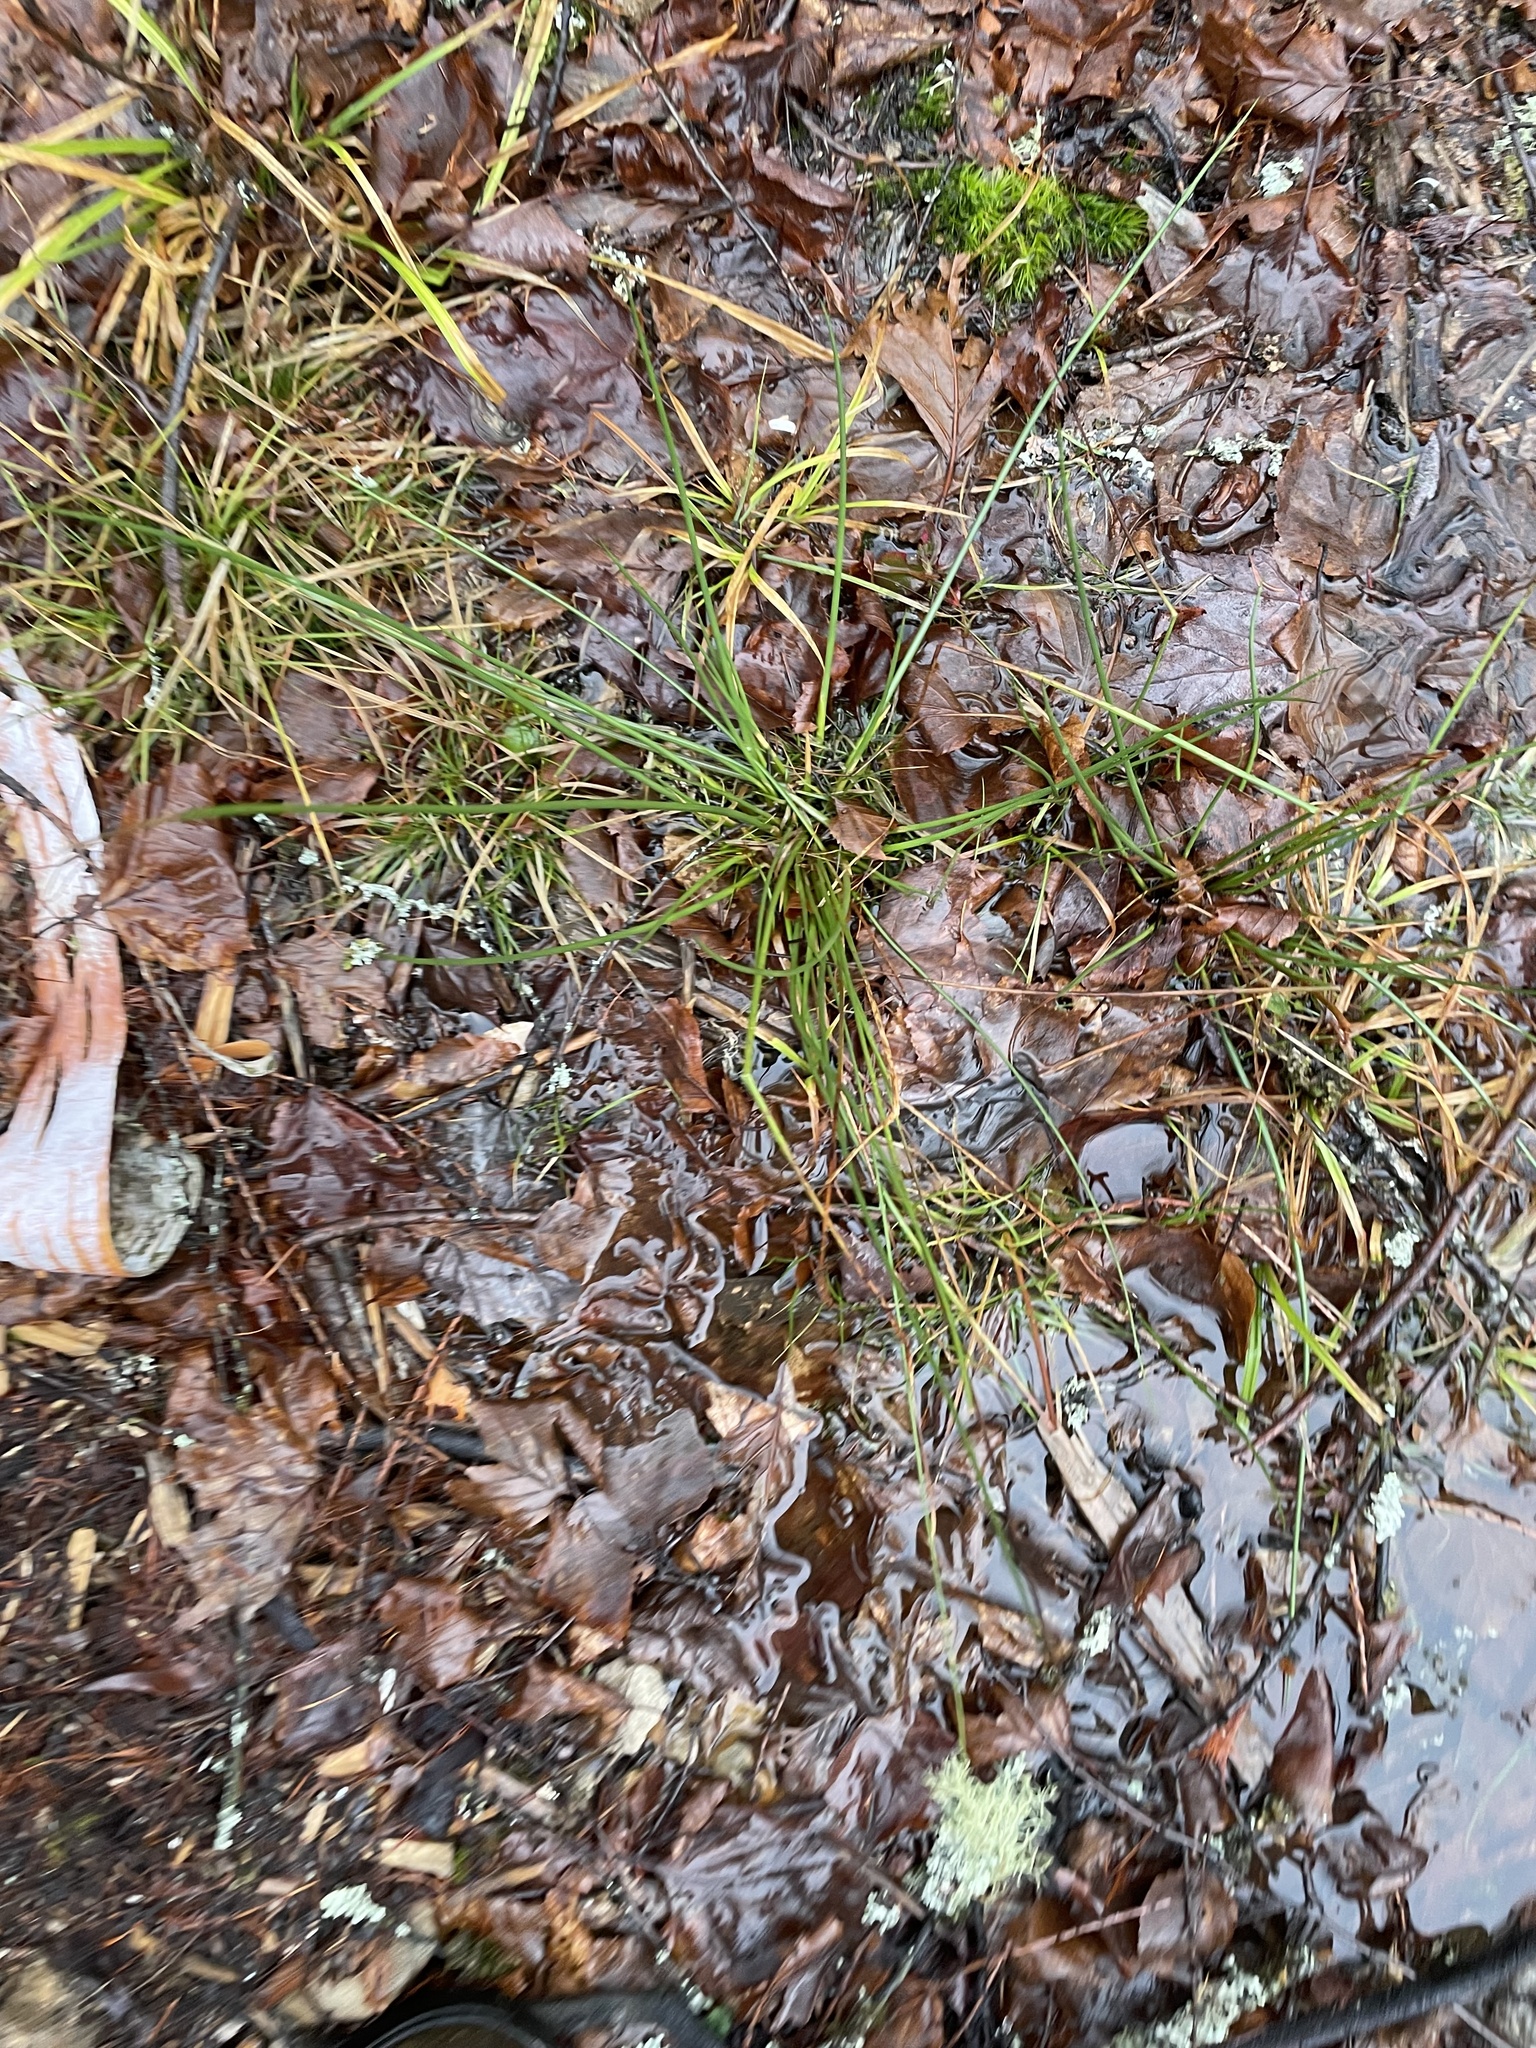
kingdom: Plantae
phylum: Tracheophyta
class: Liliopsida
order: Poales
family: Juncaceae
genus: Juncus
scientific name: Juncus effusus
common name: Soft rush
